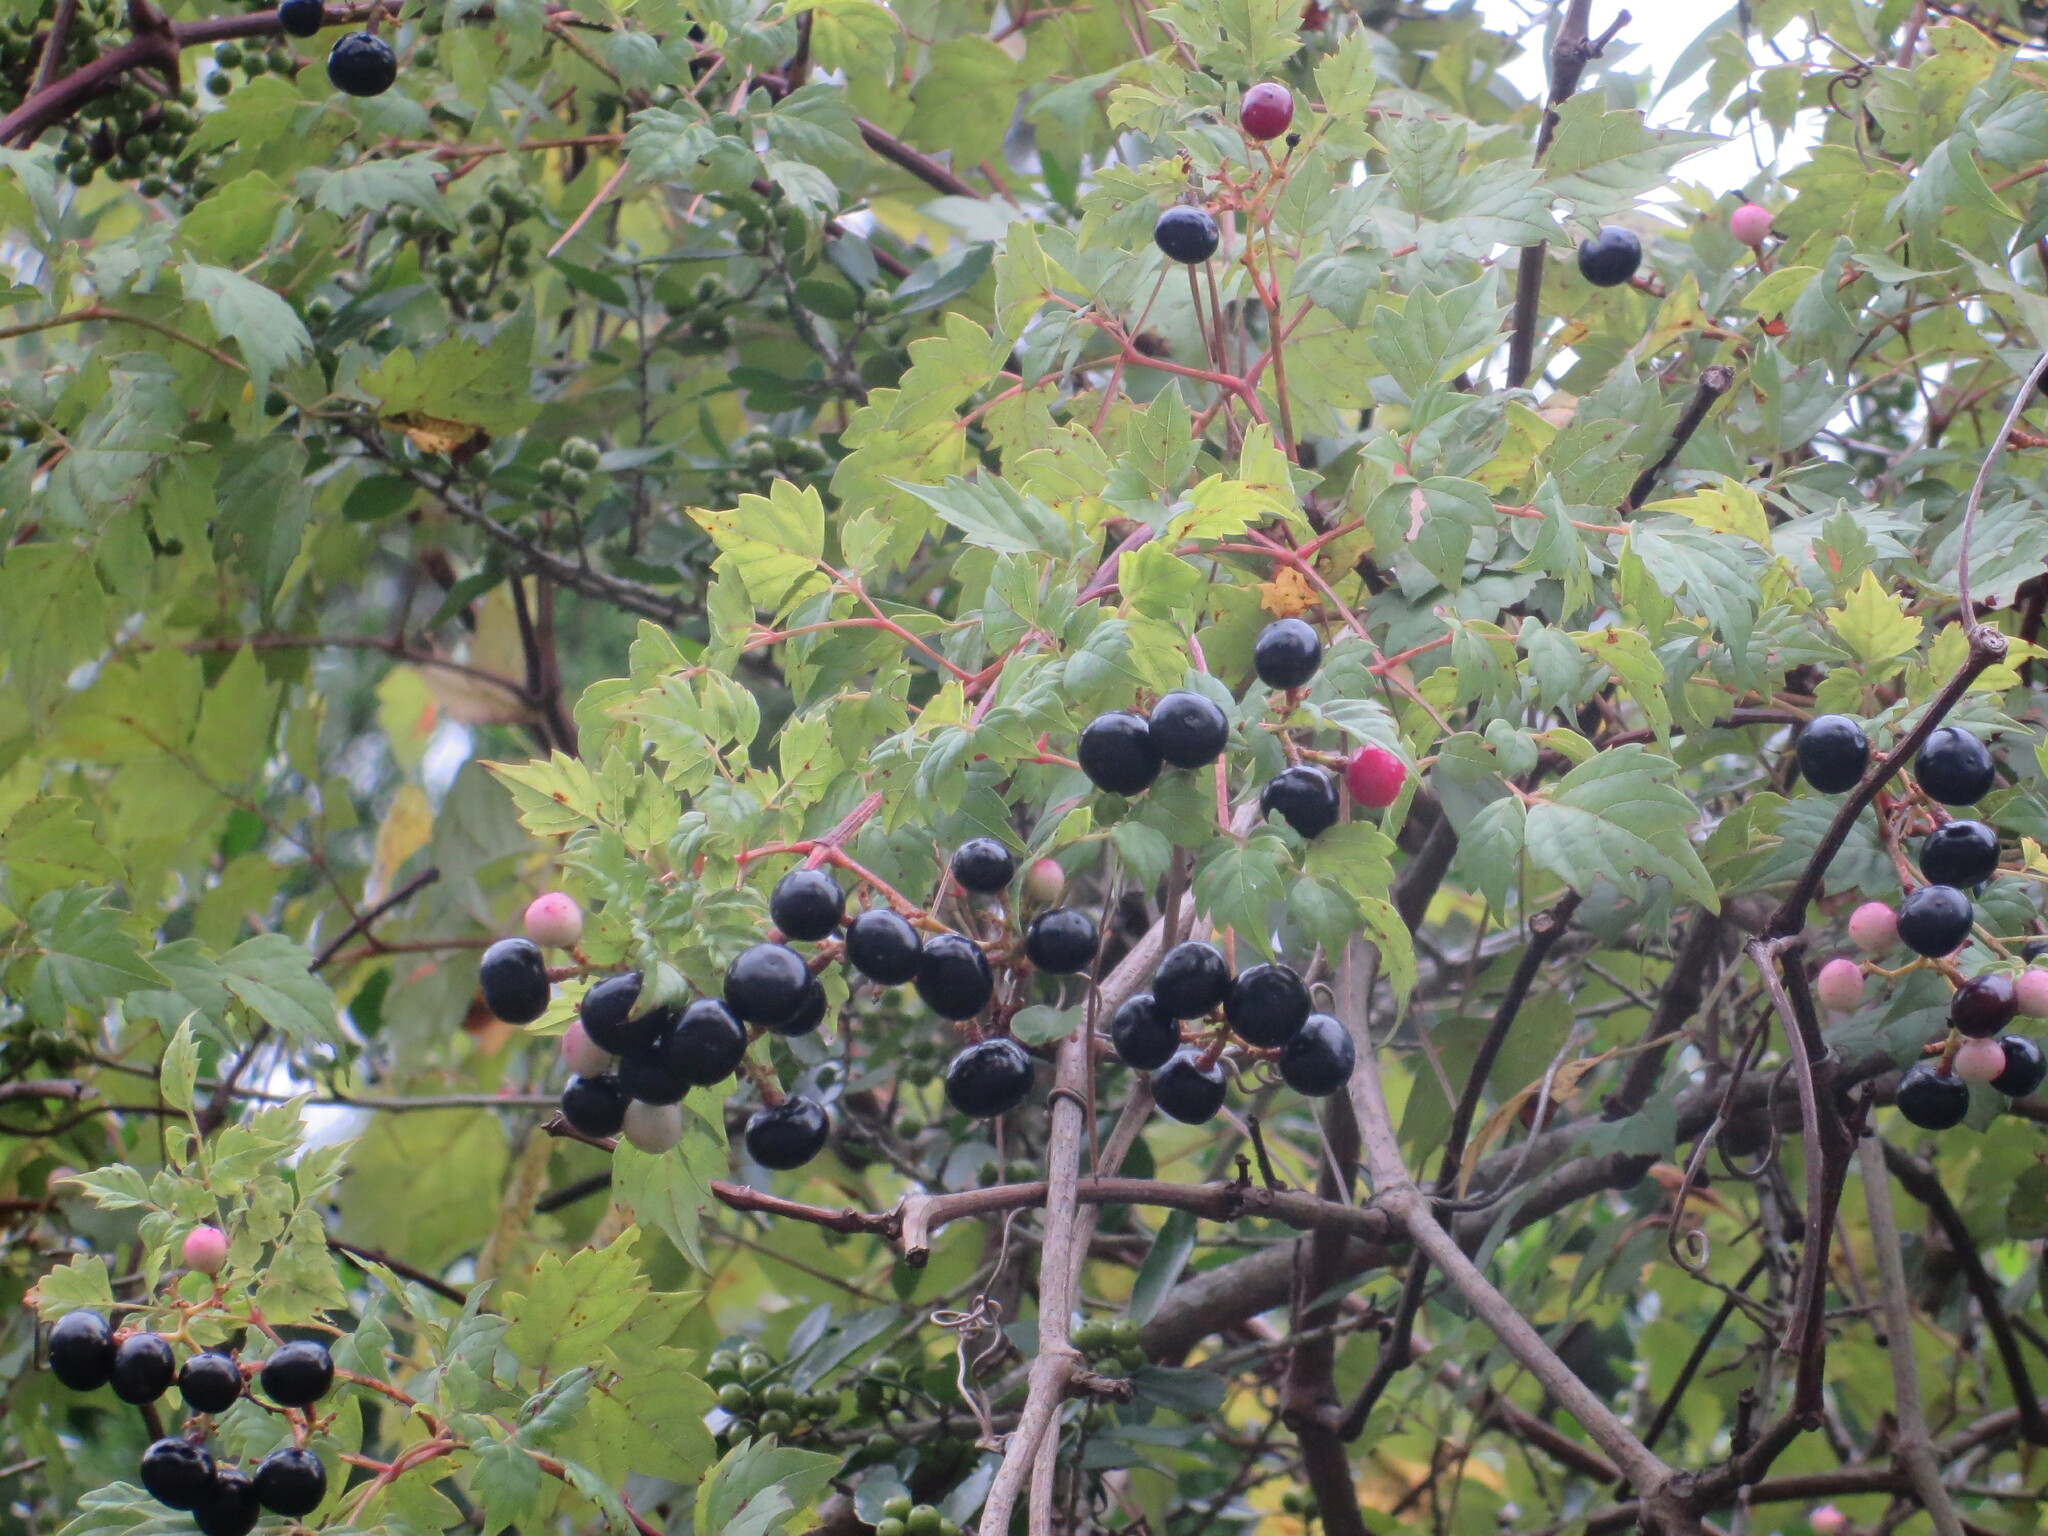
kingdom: Plantae
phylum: Tracheophyta
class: Magnoliopsida
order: Vitales
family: Vitaceae
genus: Nekemias
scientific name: Nekemias arborea
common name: Peppervine
